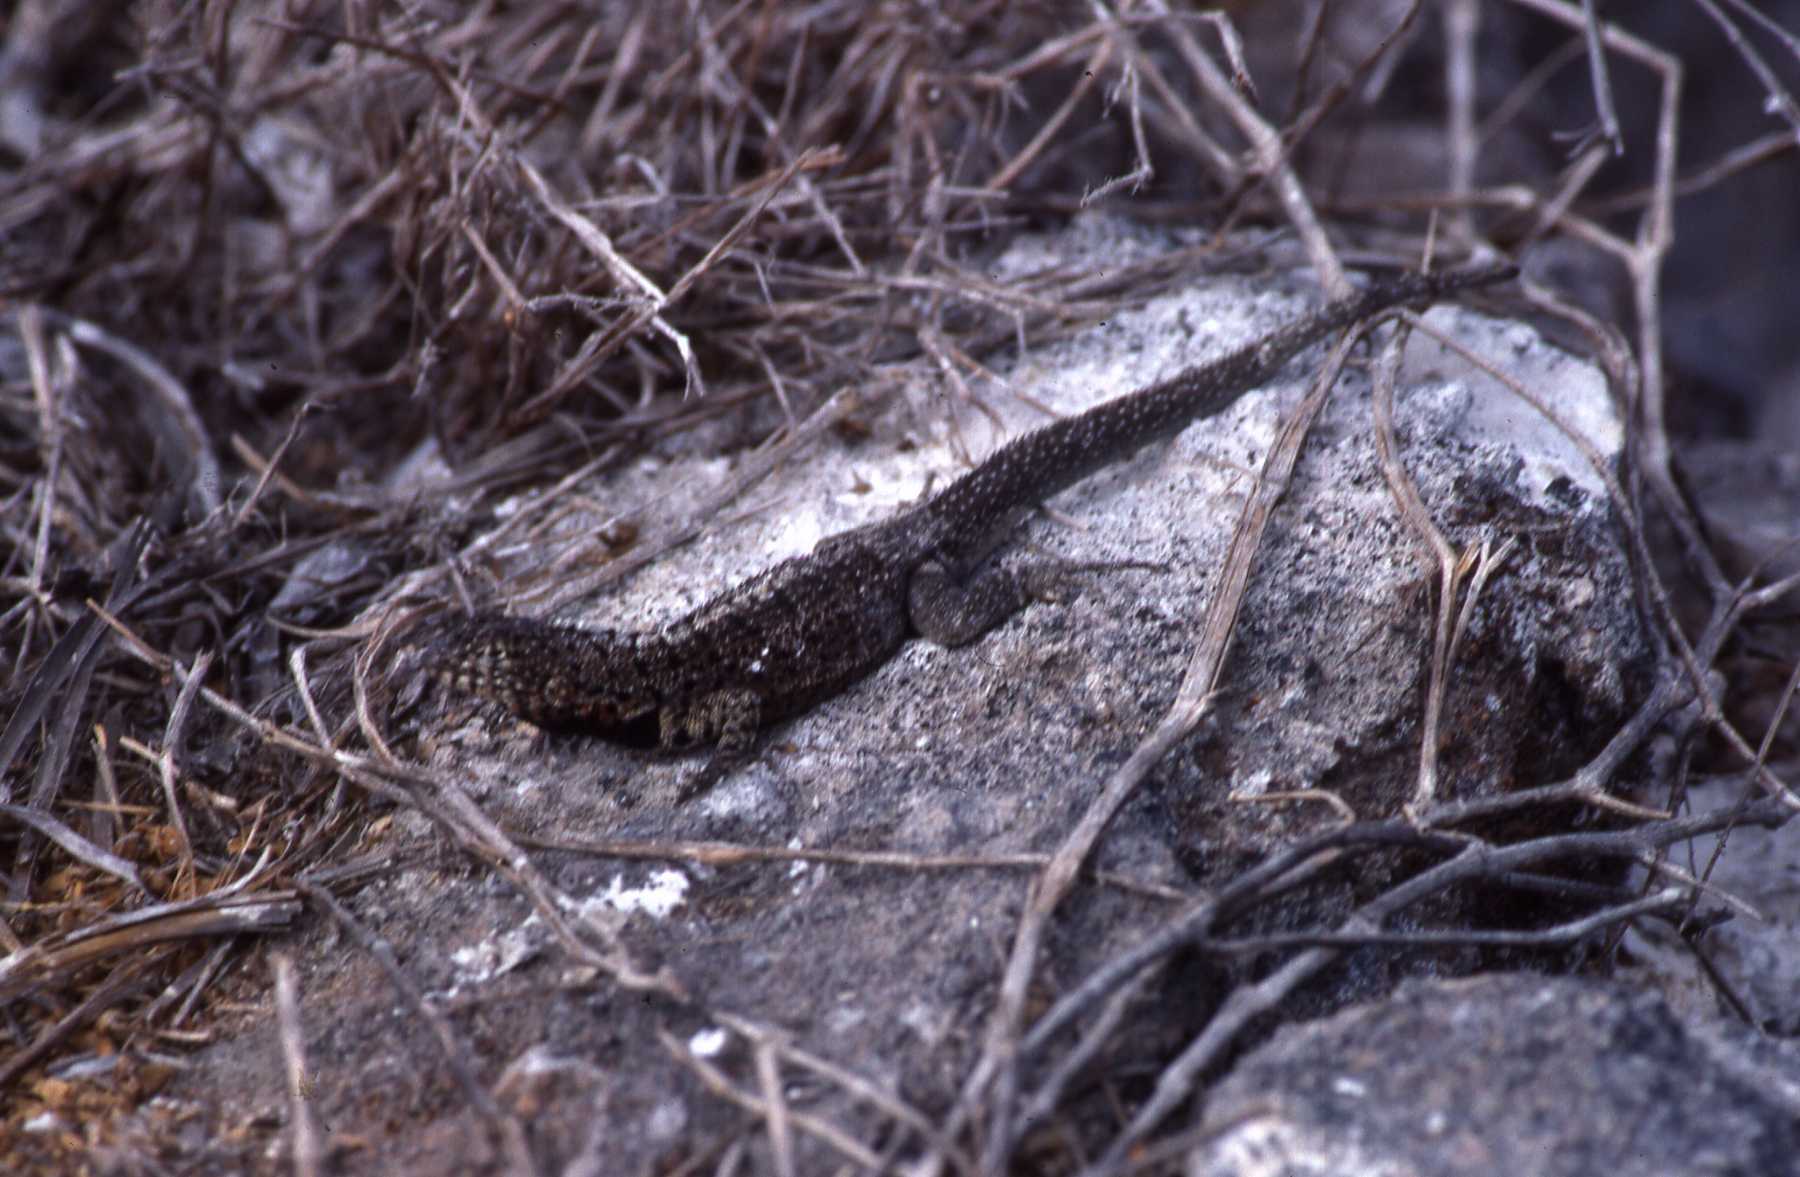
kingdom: Animalia
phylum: Chordata
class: Squamata
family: Tropiduridae
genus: Microlophus
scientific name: Microlophus indefatigabilis
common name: Galapagos lava lizard
